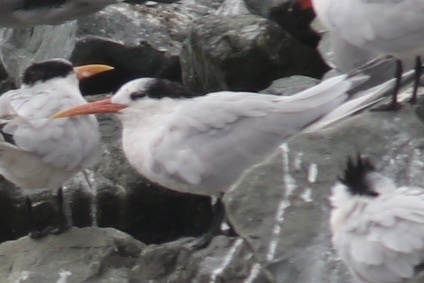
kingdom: Animalia
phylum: Chordata
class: Aves
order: Charadriiformes
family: Laridae
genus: Thalasseus
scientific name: Thalasseus elegans
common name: Elegant tern
